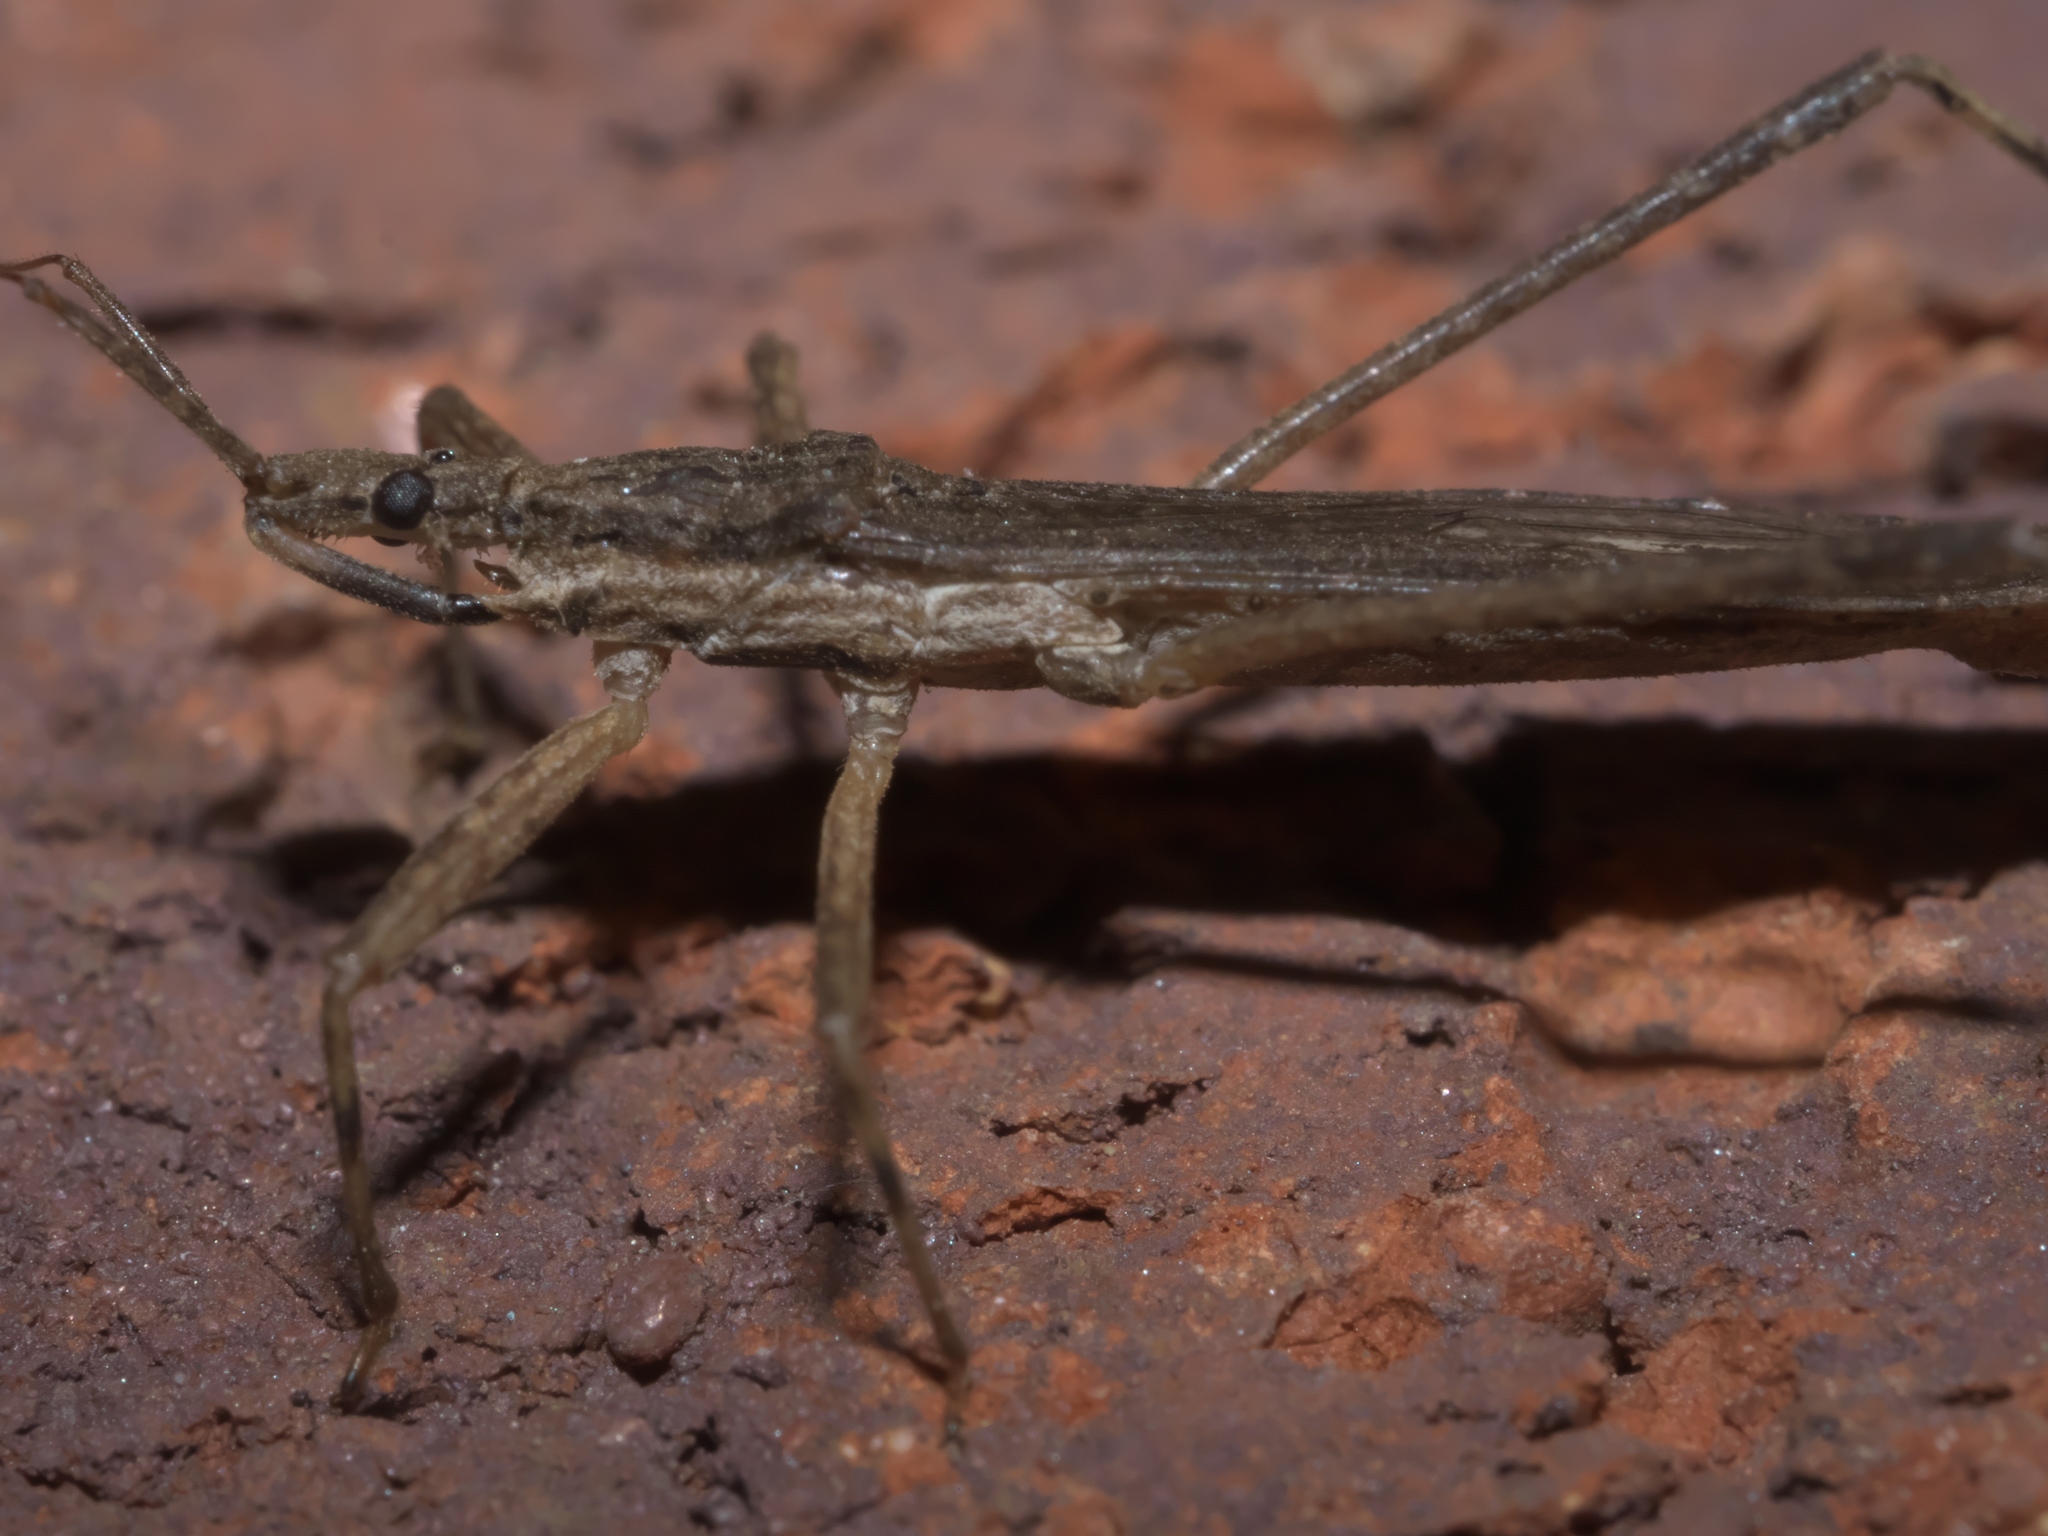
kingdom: Animalia
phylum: Arthropoda
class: Insecta
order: Hemiptera
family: Reduviidae
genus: Pygolampis
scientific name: Pygolampis pectoralis
